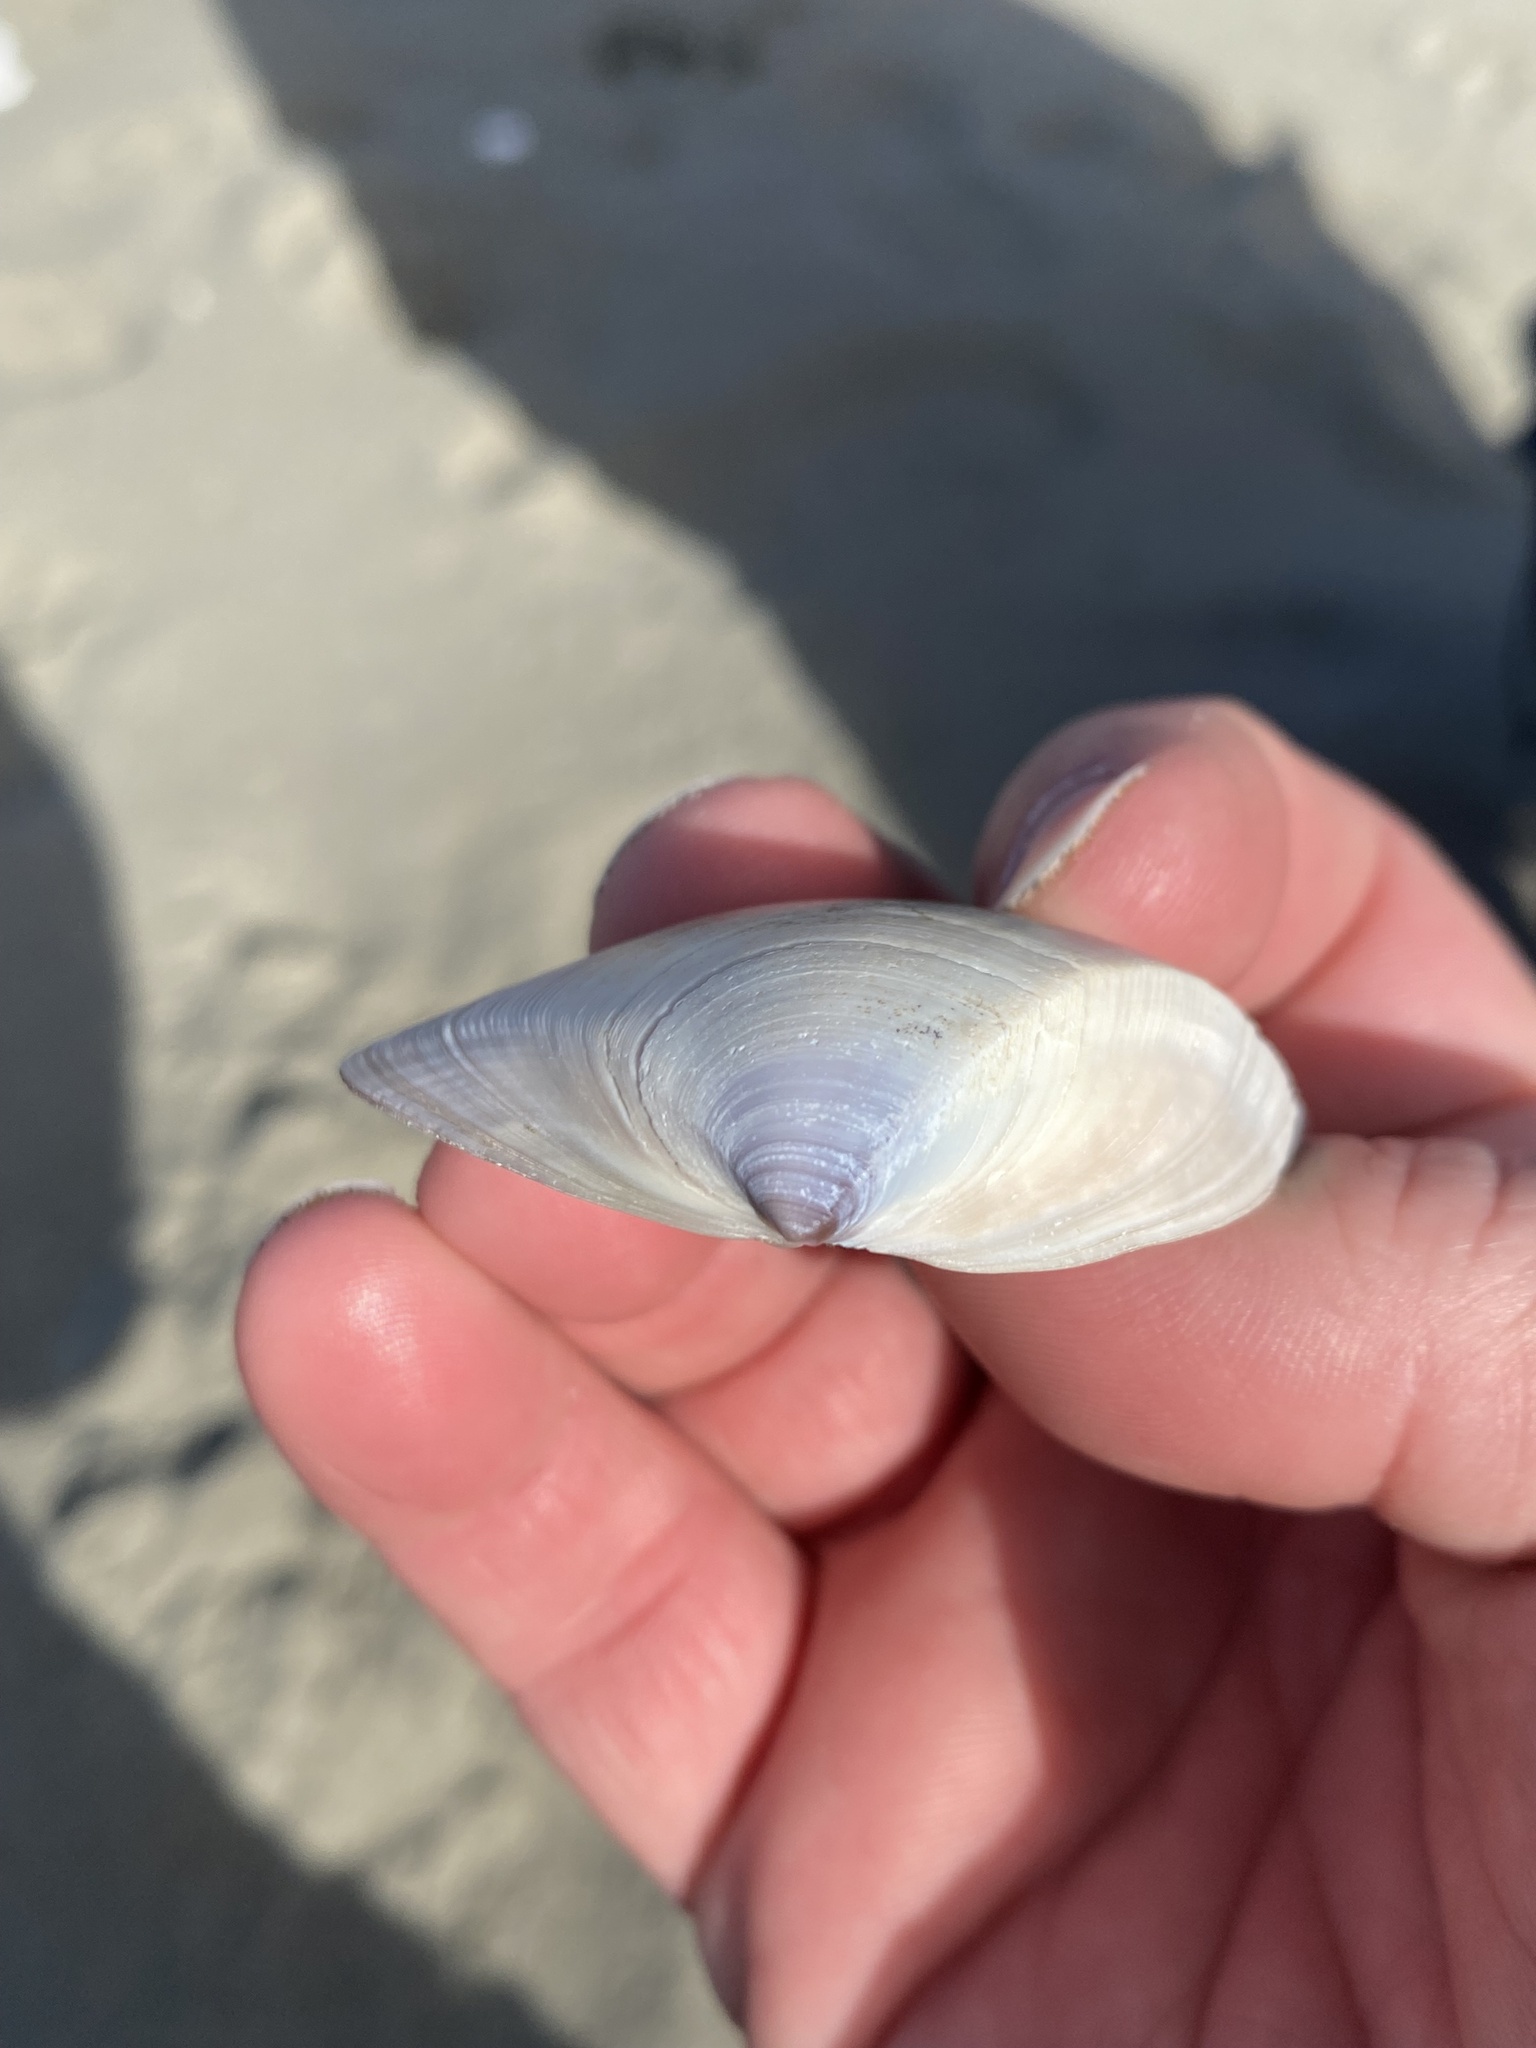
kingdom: Animalia
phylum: Mollusca
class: Bivalvia
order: Venerida
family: Mactridae
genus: Crassula
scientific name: Crassula aequilatera
